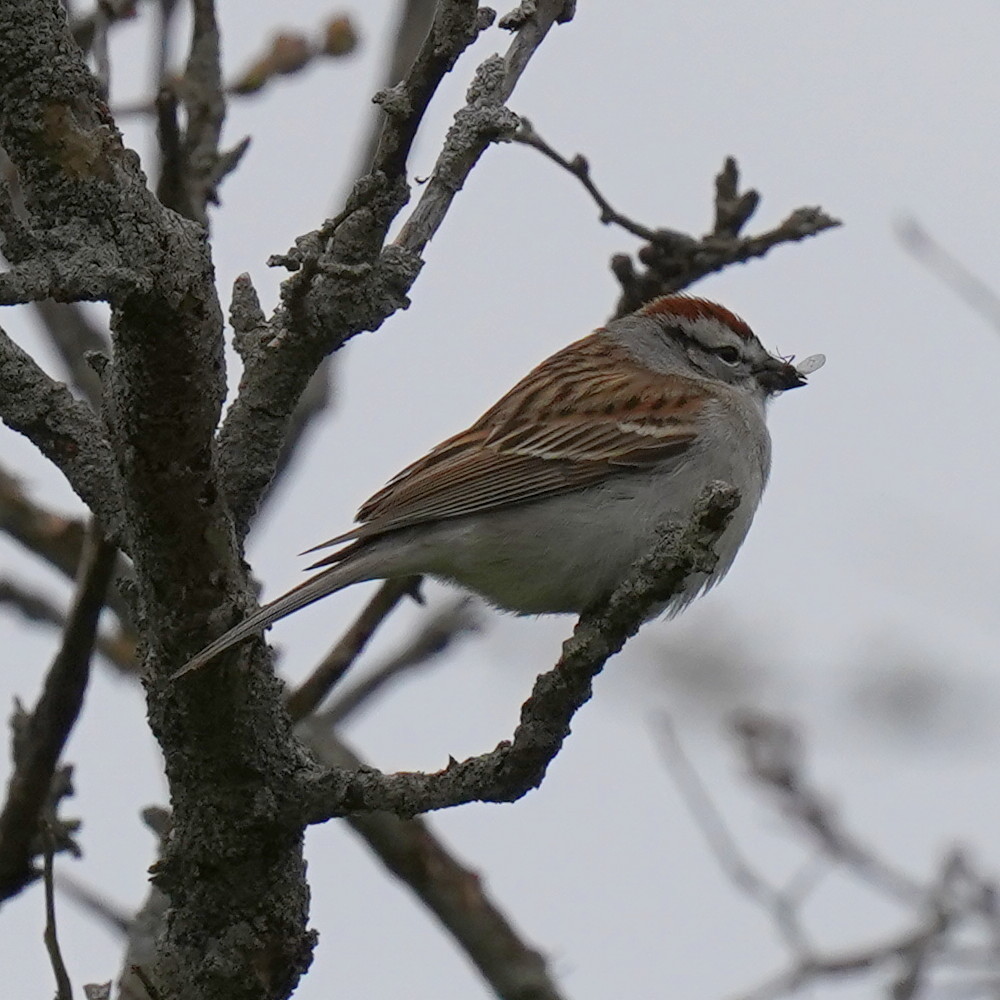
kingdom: Animalia
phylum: Chordata
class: Aves
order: Passeriformes
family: Passerellidae
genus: Spizella
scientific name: Spizella passerina
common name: Chipping sparrow
